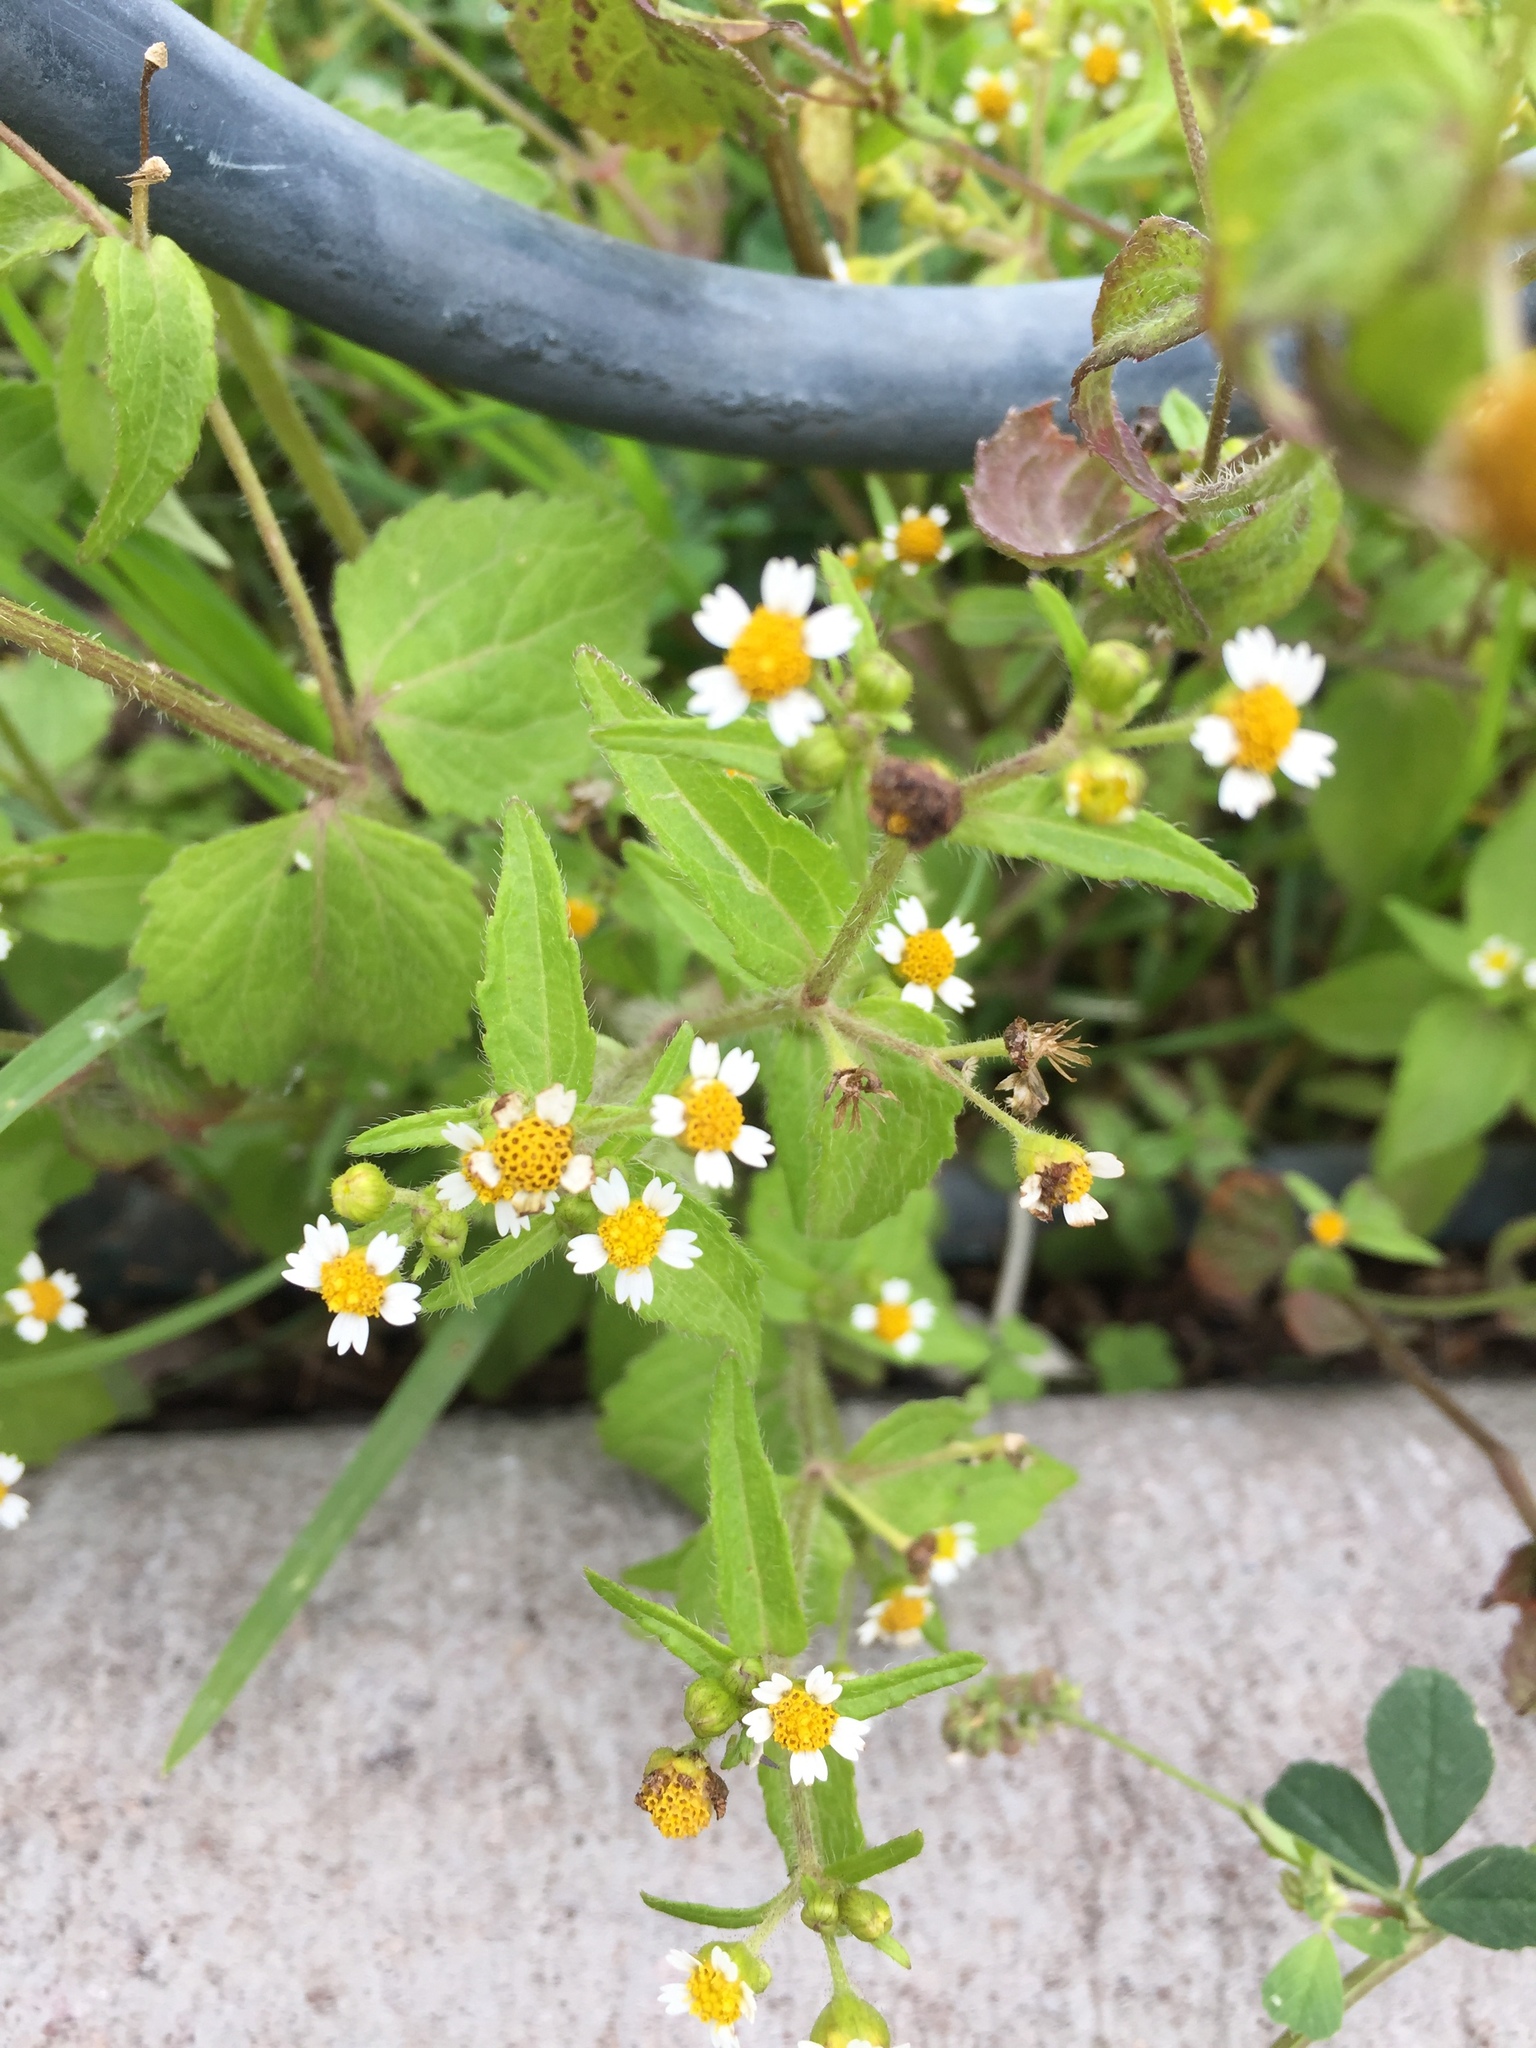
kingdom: Plantae
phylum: Tracheophyta
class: Magnoliopsida
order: Asterales
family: Asteraceae
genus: Galinsoga
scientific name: Galinsoga quadriradiata
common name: Shaggy soldier
